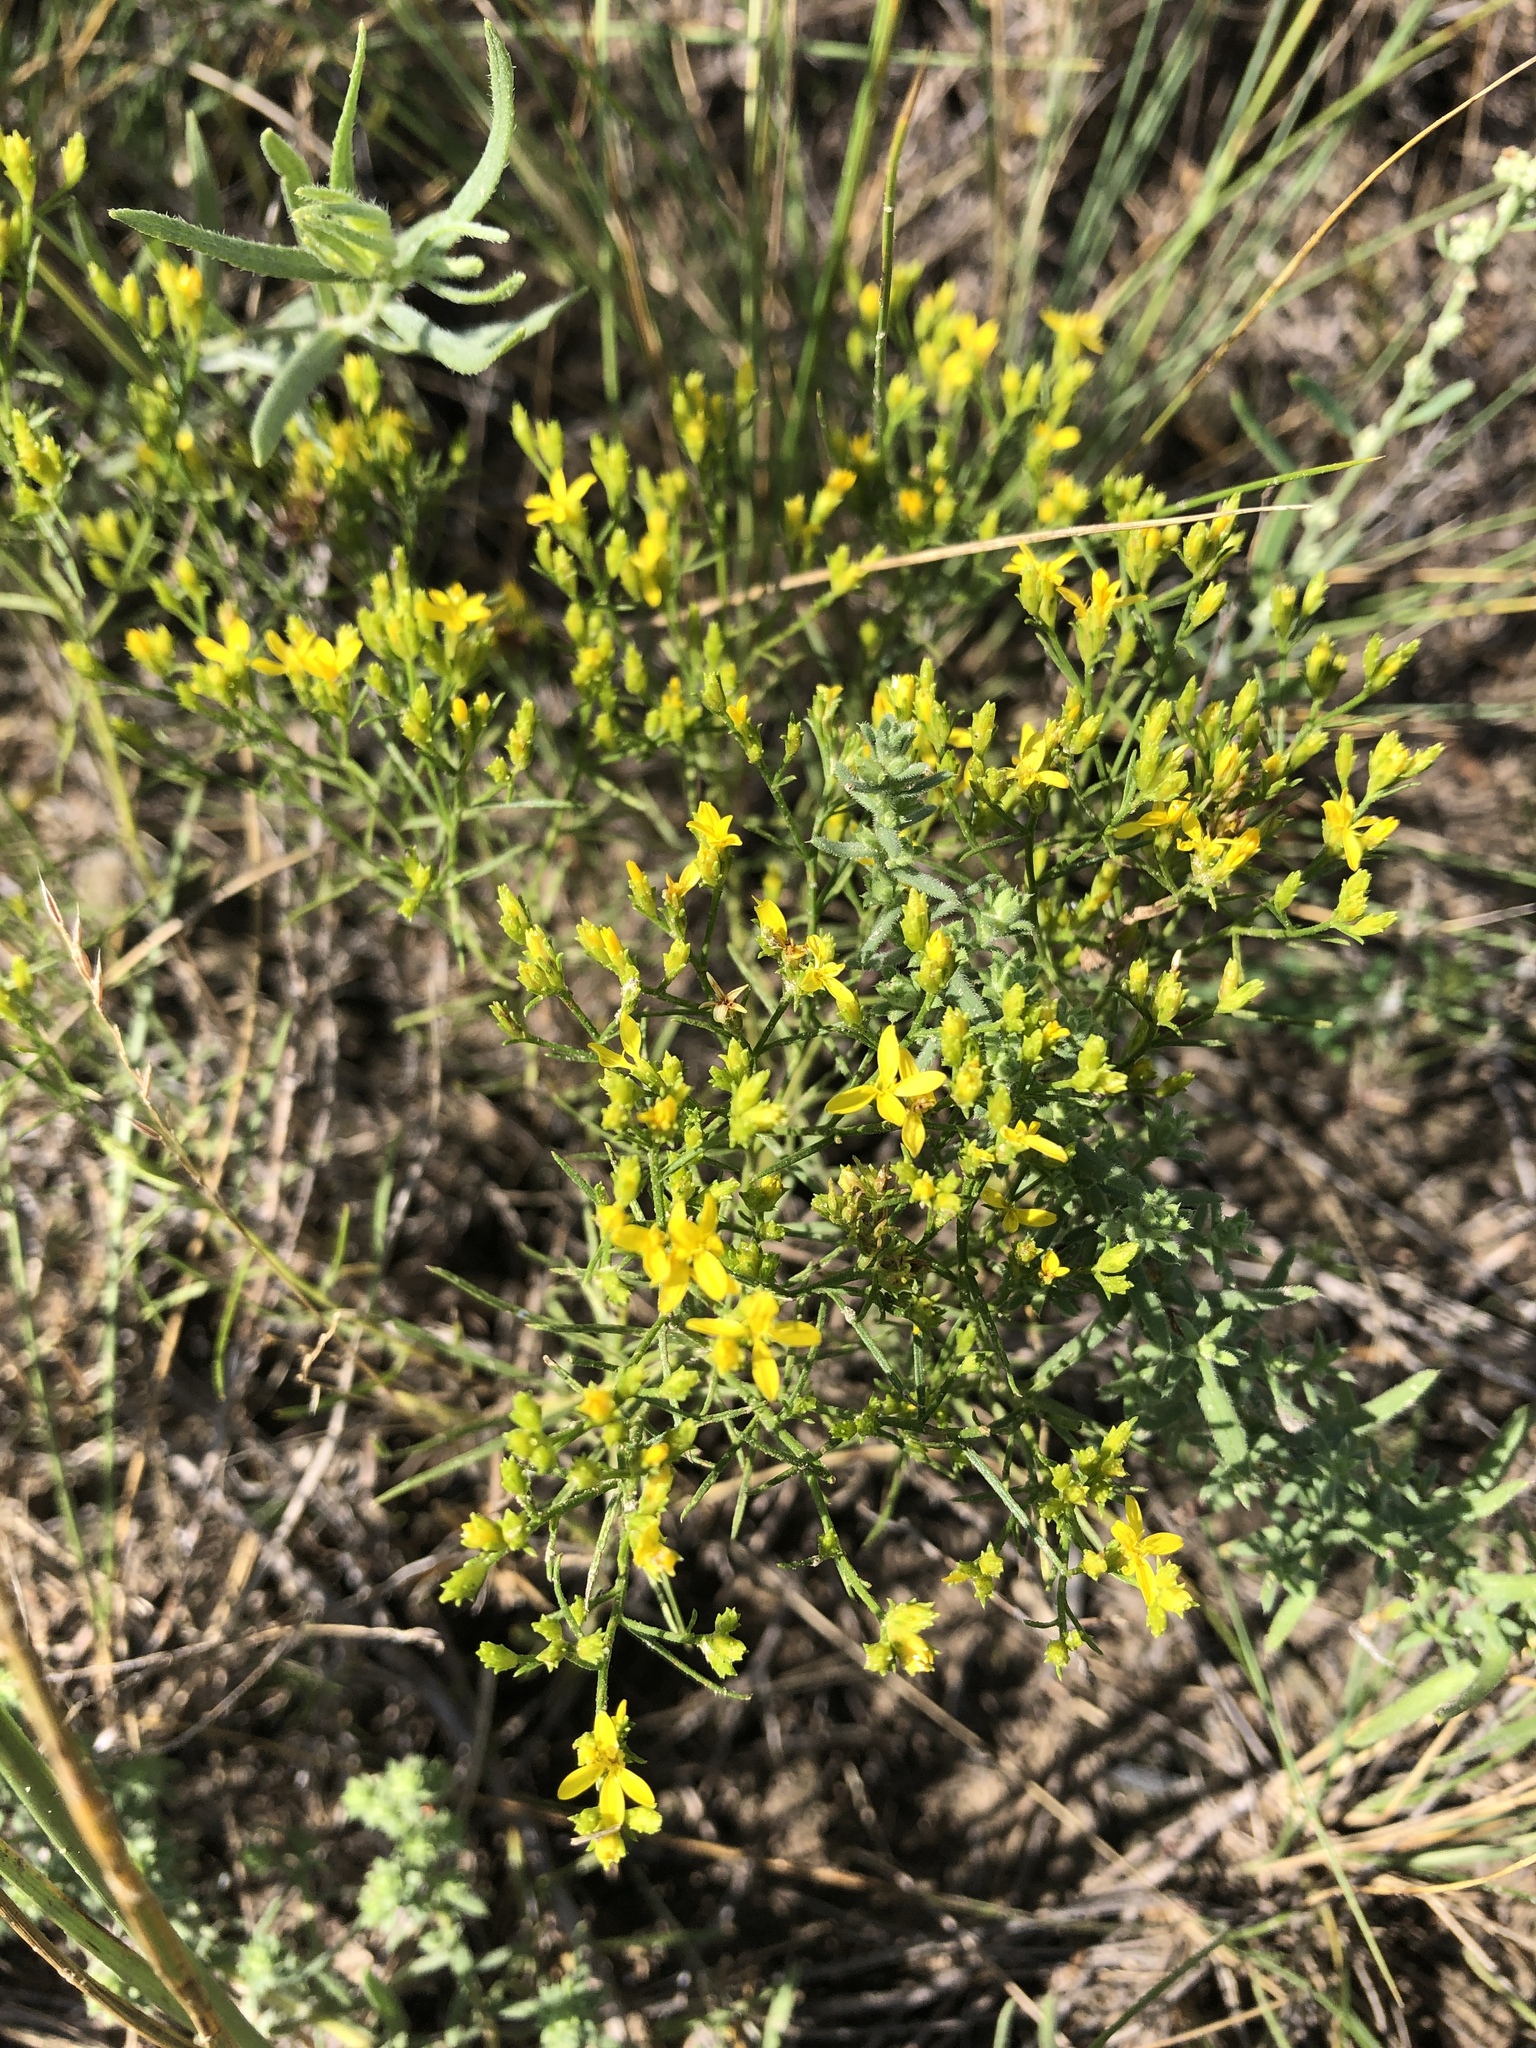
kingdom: Plantae
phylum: Tracheophyta
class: Magnoliopsida
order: Asterales
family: Asteraceae
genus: Gutierrezia
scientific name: Gutierrezia sarothrae
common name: Broom snakeweed
